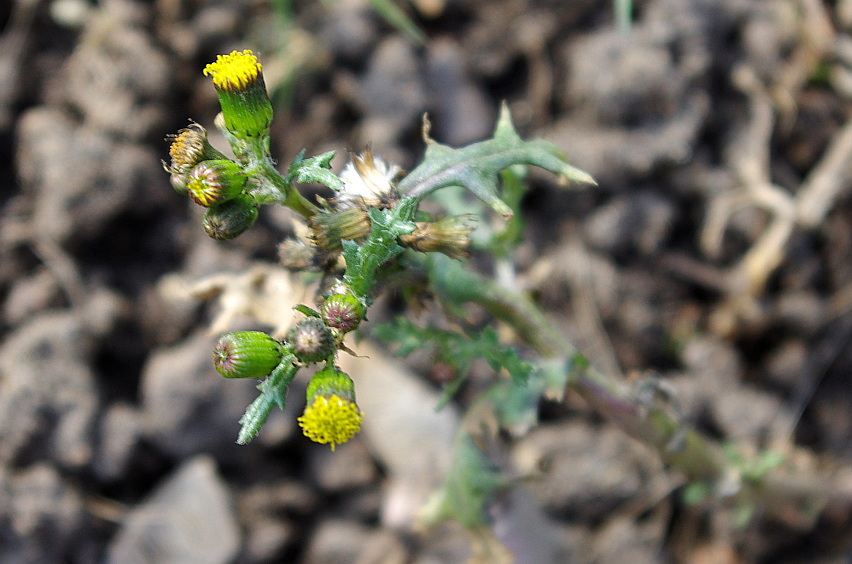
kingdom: Plantae
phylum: Tracheophyta
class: Magnoliopsida
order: Asterales
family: Asteraceae
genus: Senecio
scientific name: Senecio vulgaris
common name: Old-man-in-the-spring
